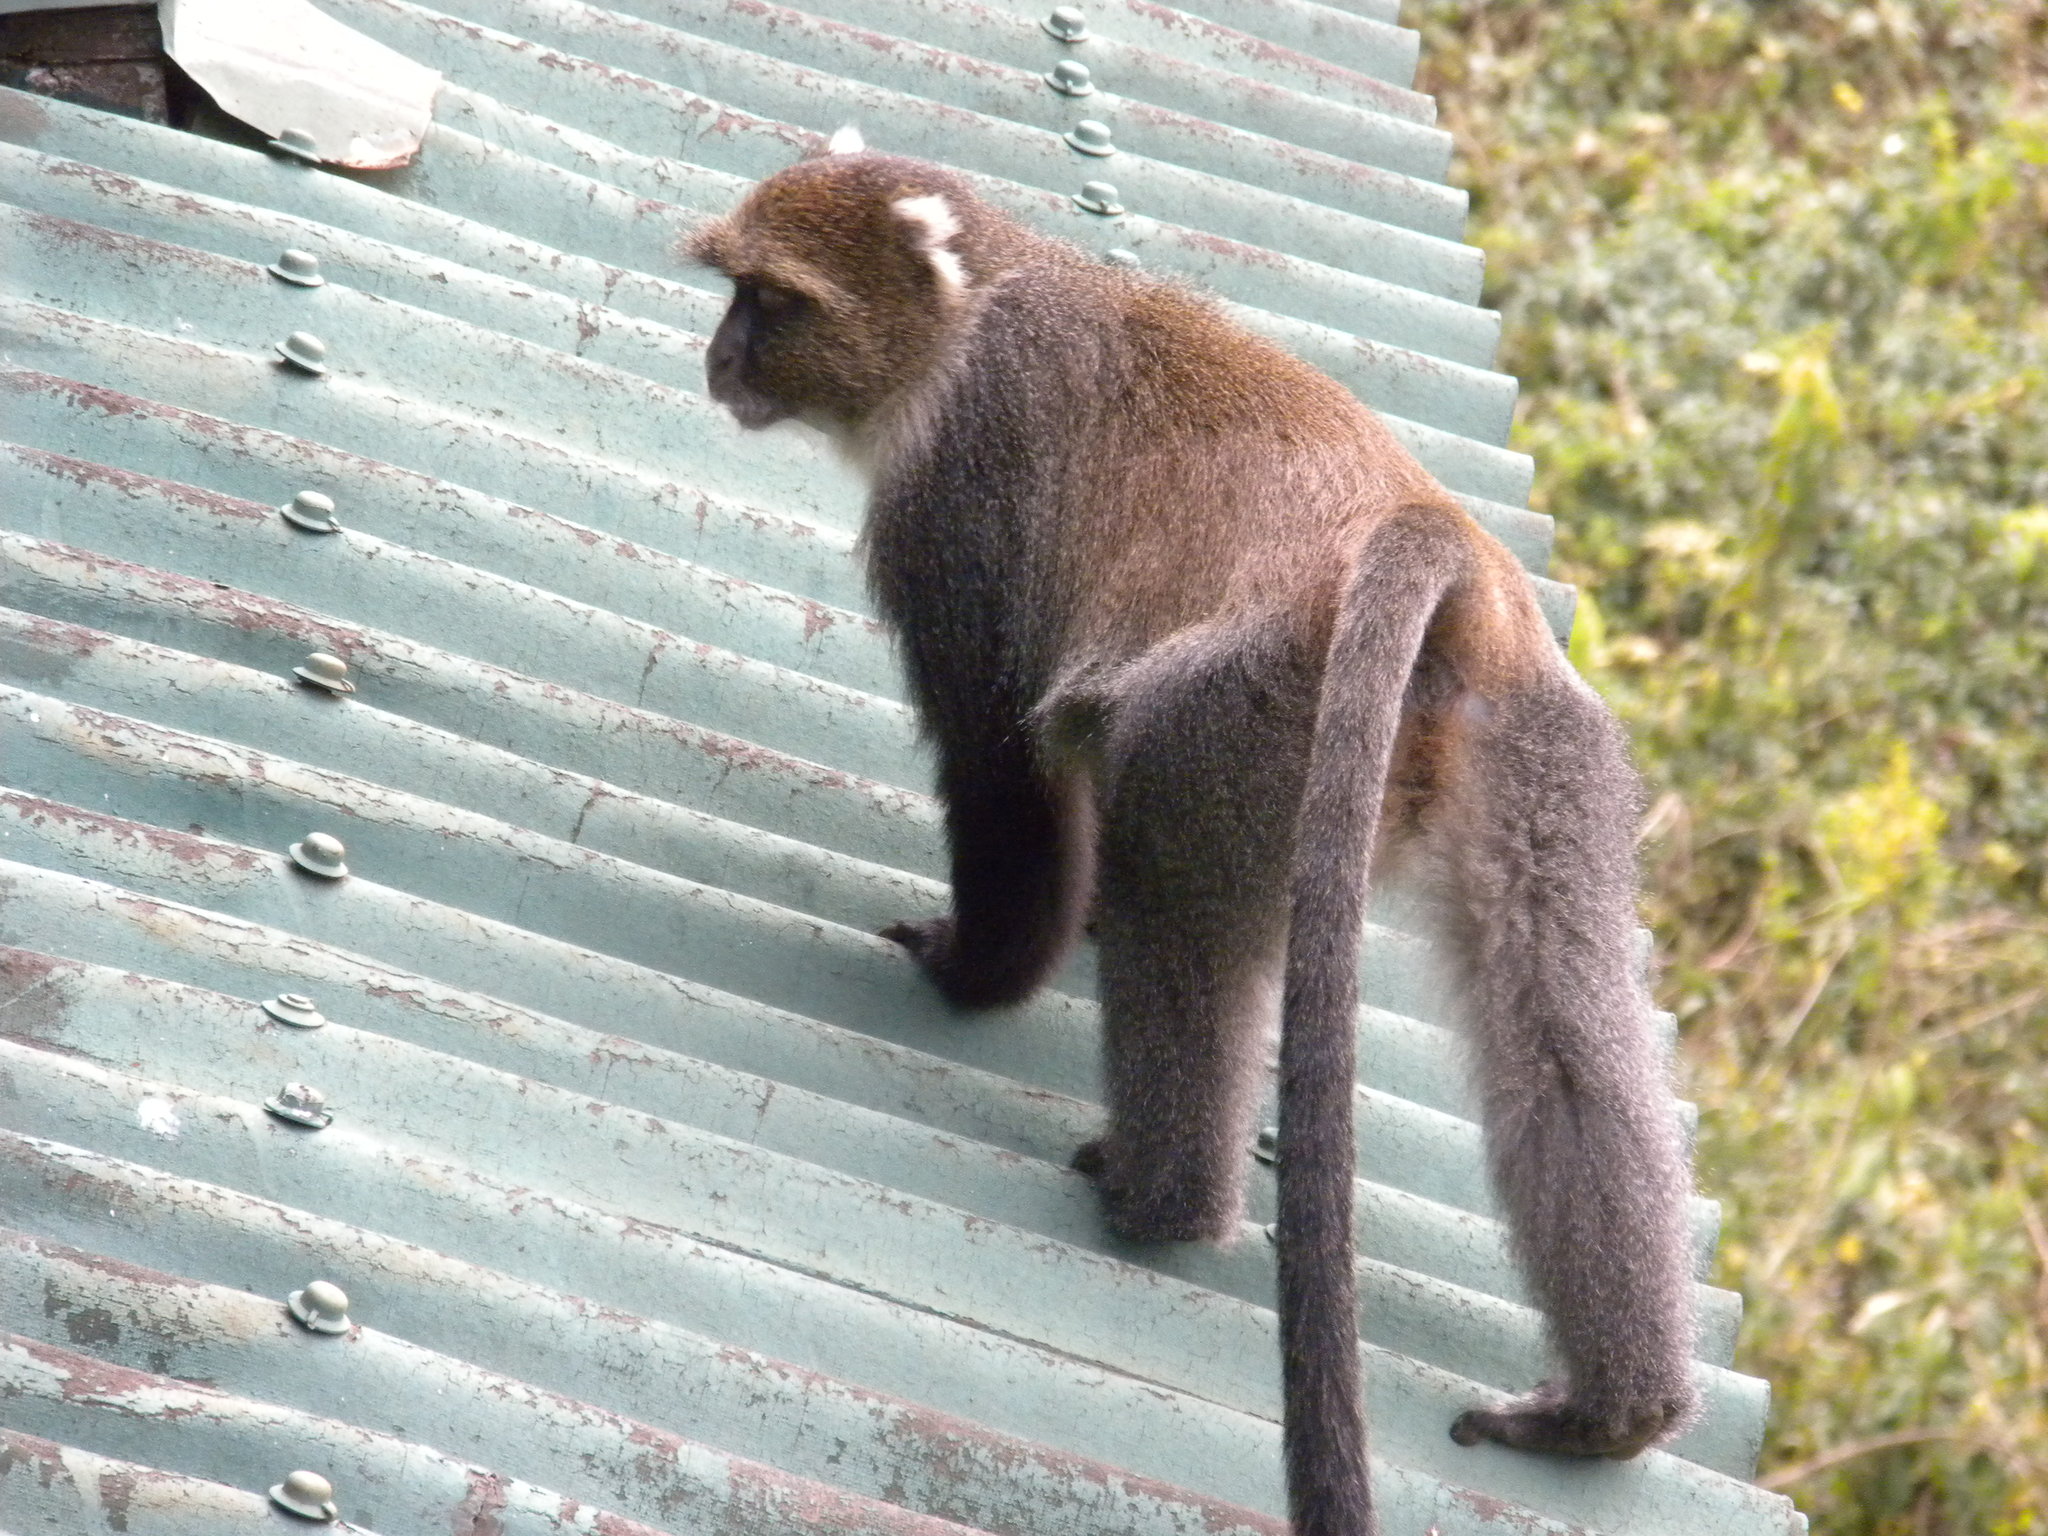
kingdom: Animalia
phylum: Chordata
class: Mammalia
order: Primates
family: Cercopithecidae
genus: Cercopithecus
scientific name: Cercopithecus mitis
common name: Blue monkey
